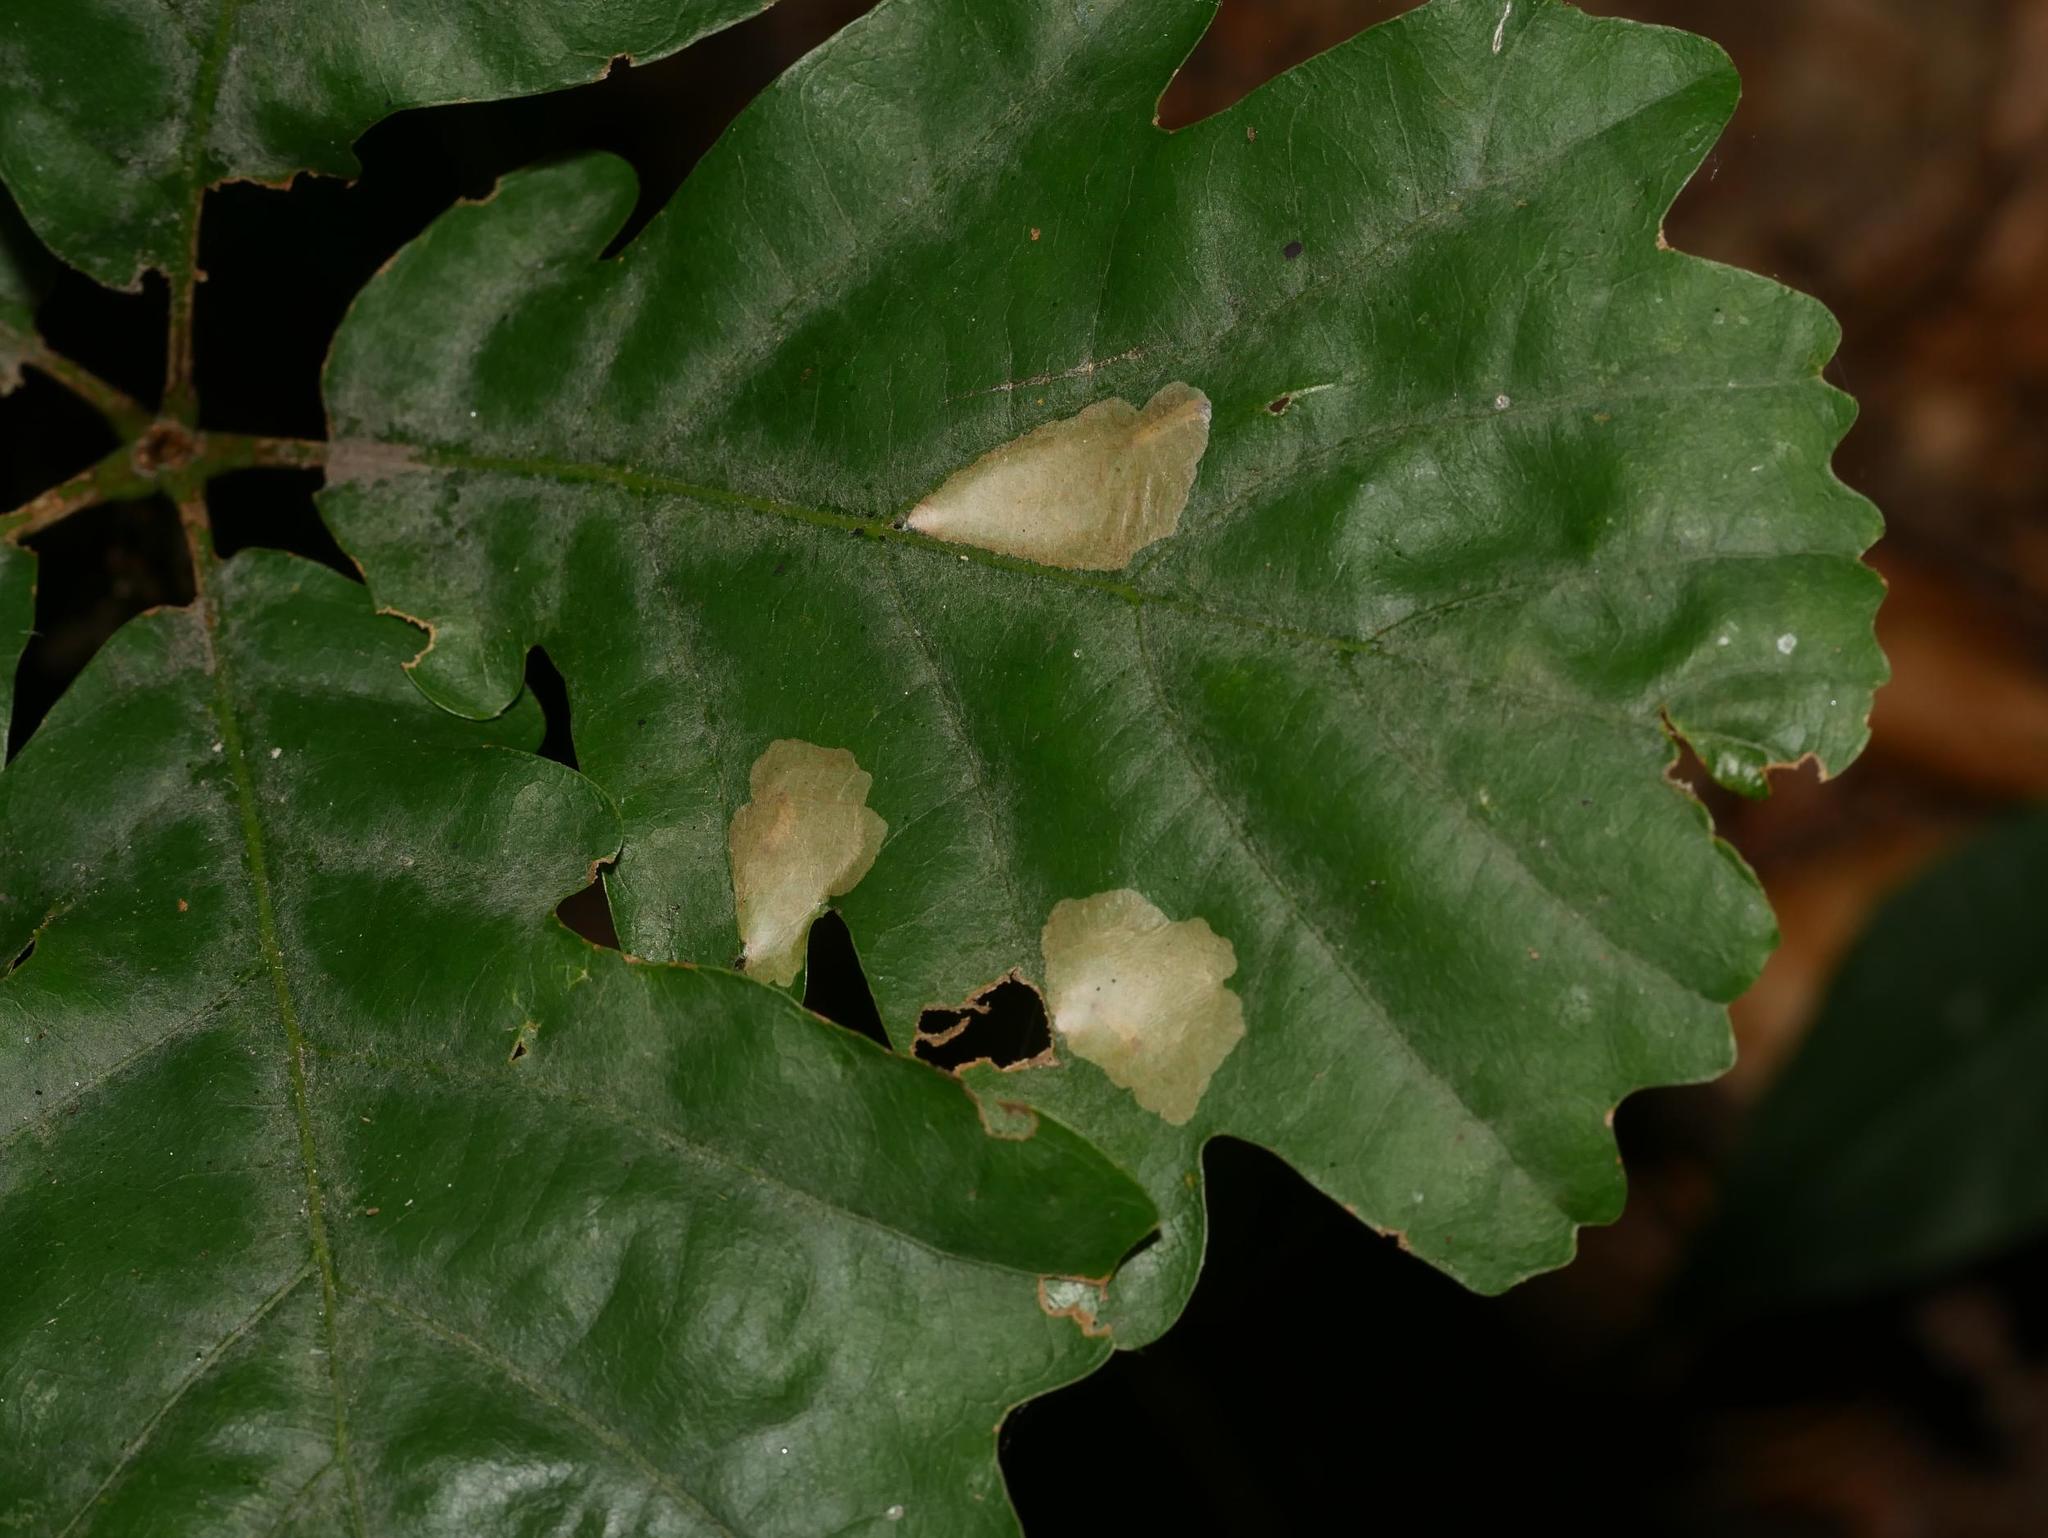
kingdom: Animalia
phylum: Arthropoda
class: Insecta
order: Lepidoptera
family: Tischeriidae
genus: Tischeria
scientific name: Tischeria ekebladella
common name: Oak carl
